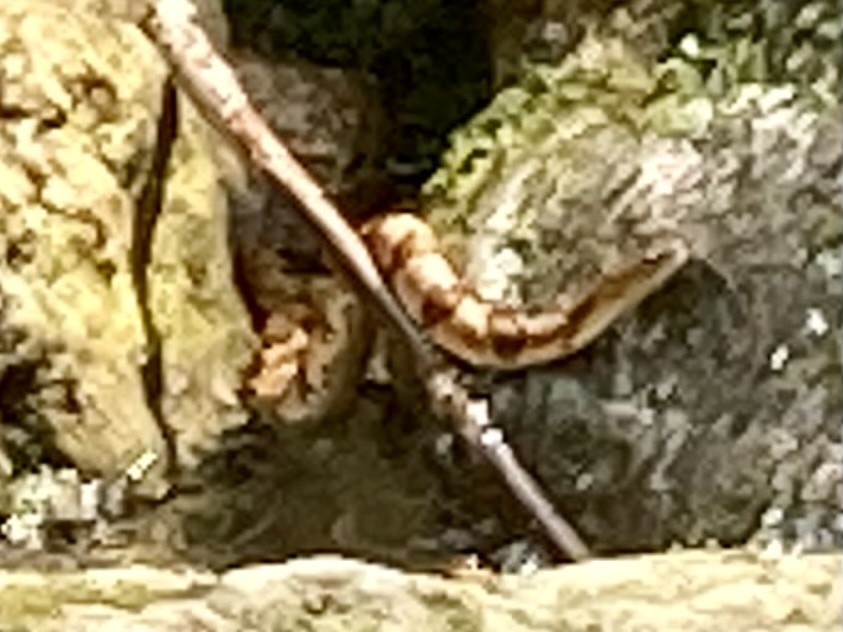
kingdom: Animalia
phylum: Chordata
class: Squamata
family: Colubridae
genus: Nerodia
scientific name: Nerodia sipedon
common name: Northern water snake
